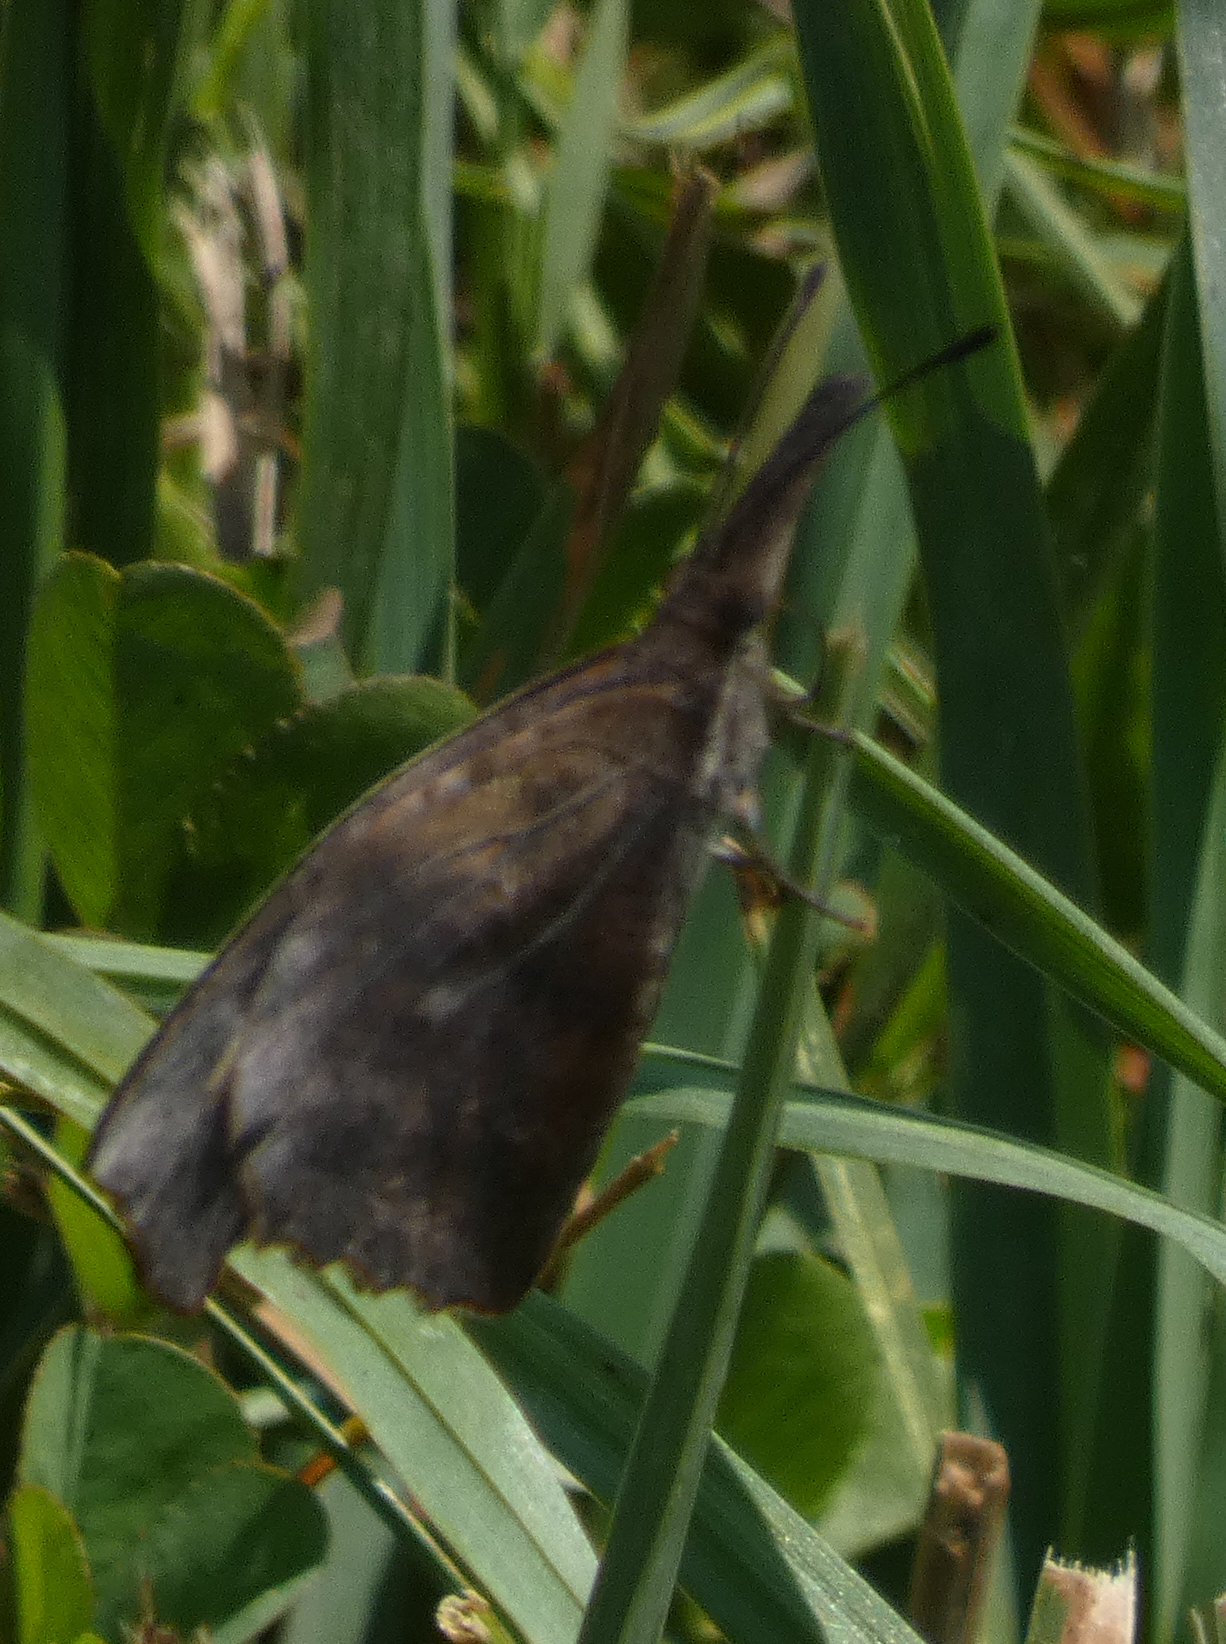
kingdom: Animalia
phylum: Arthropoda
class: Insecta
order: Lepidoptera
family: Nymphalidae
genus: Libytheana
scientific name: Libytheana carinenta
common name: American snout
